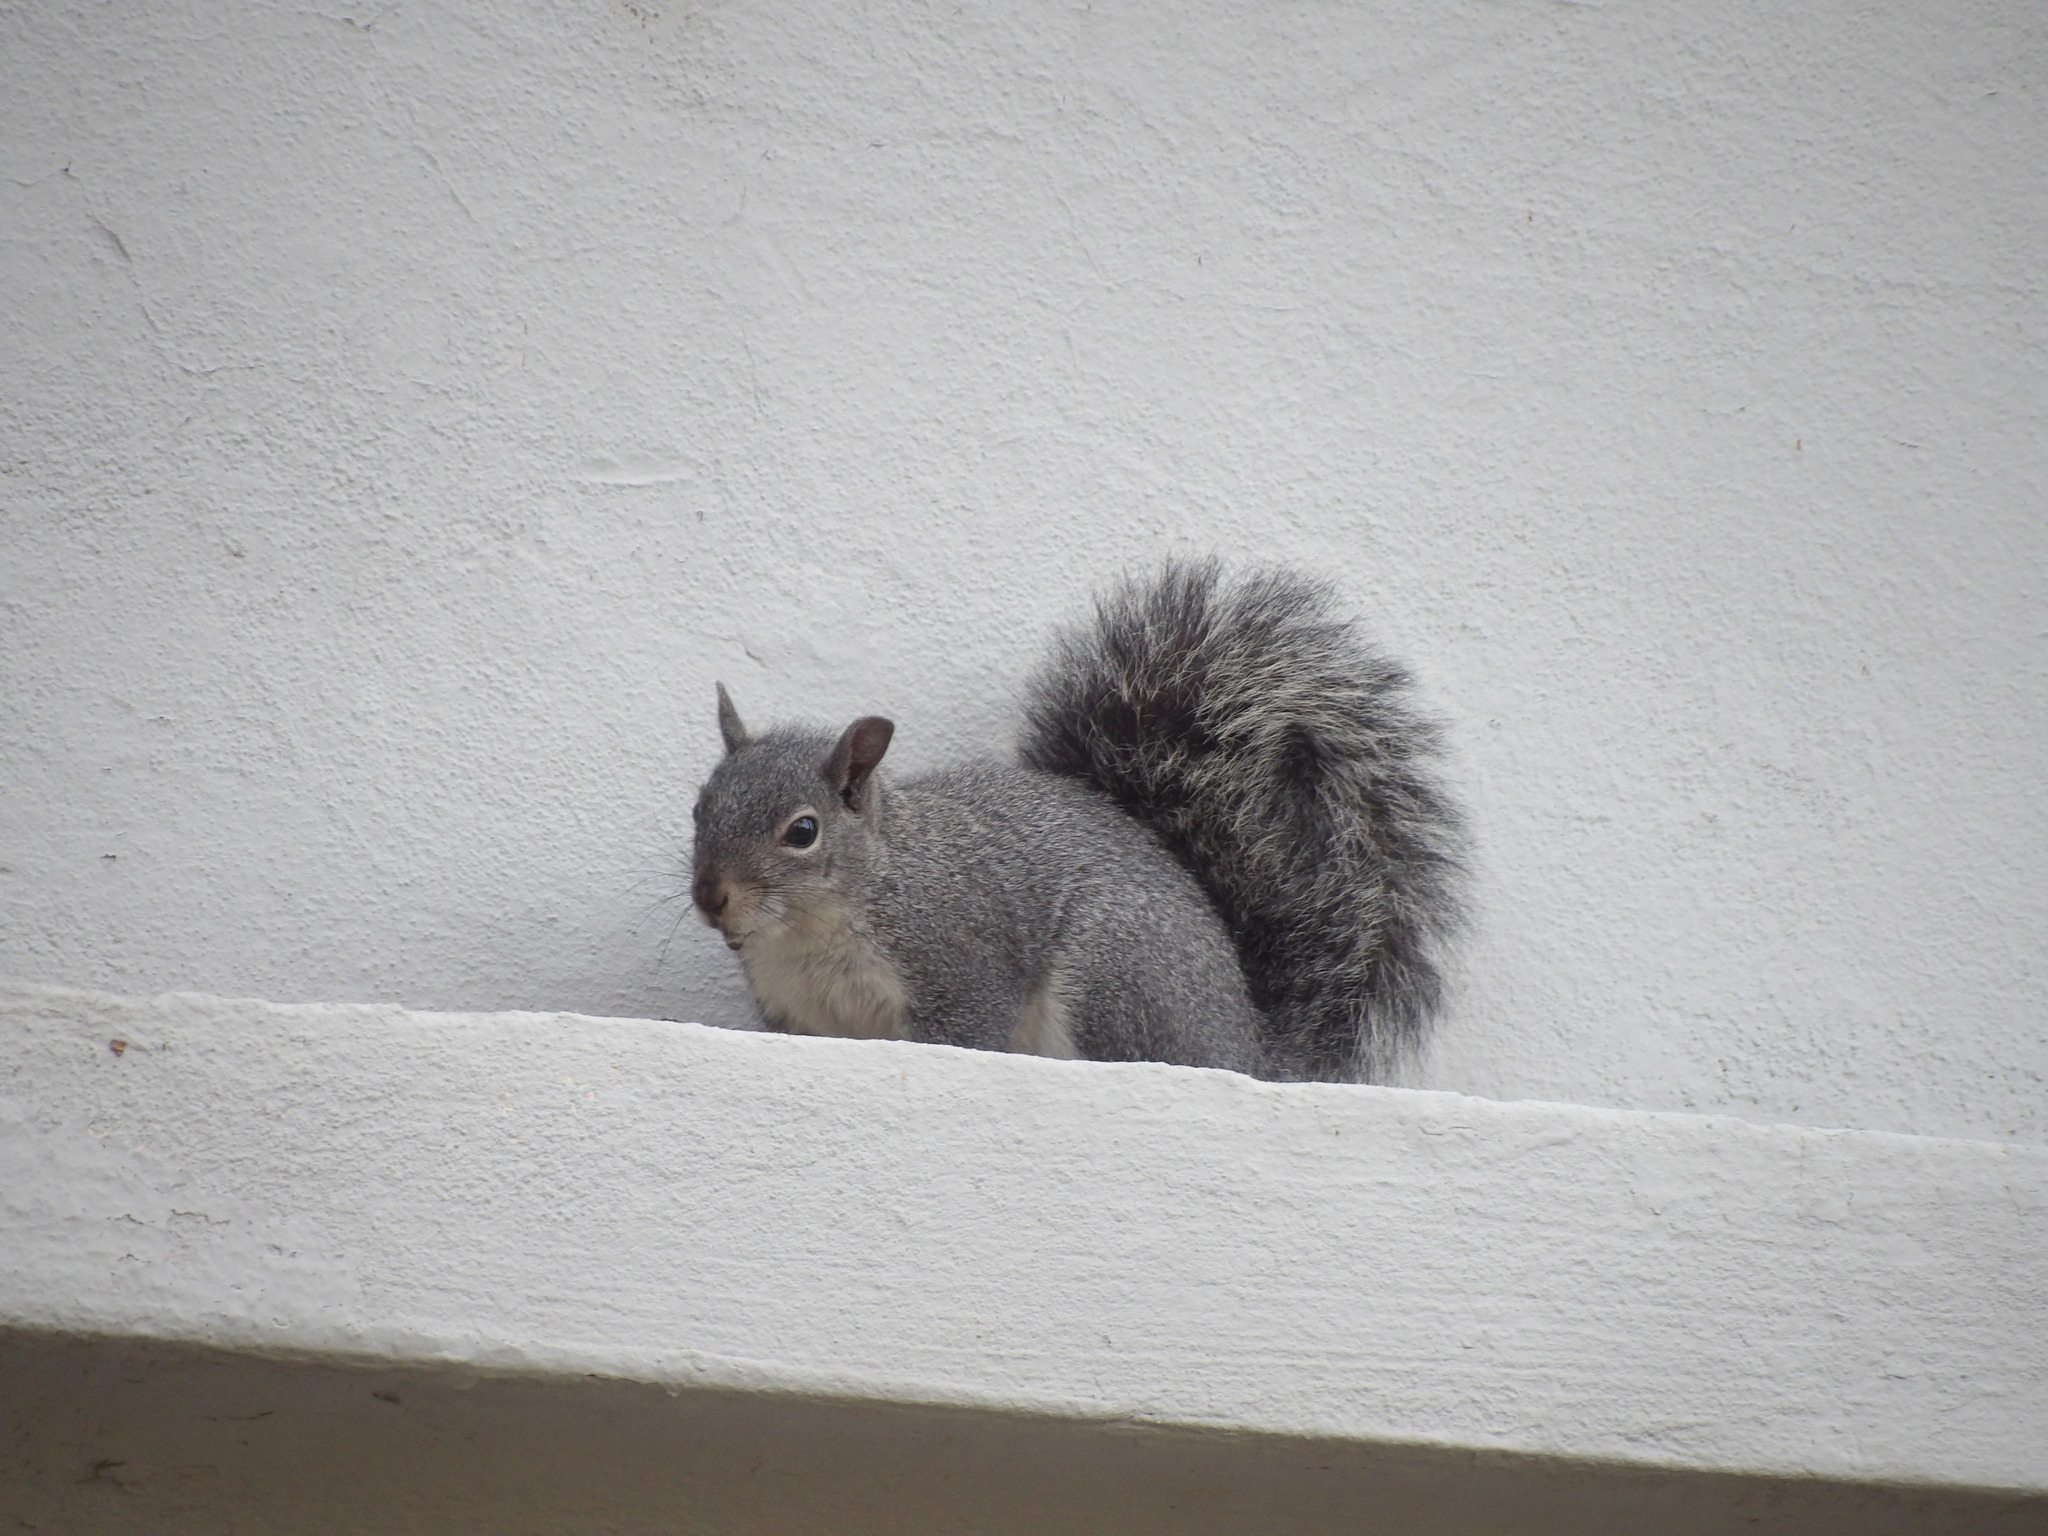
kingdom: Animalia
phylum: Chordata
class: Mammalia
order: Rodentia
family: Sciuridae
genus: Sciurus
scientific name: Sciurus griseus
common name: Western gray squirrel
